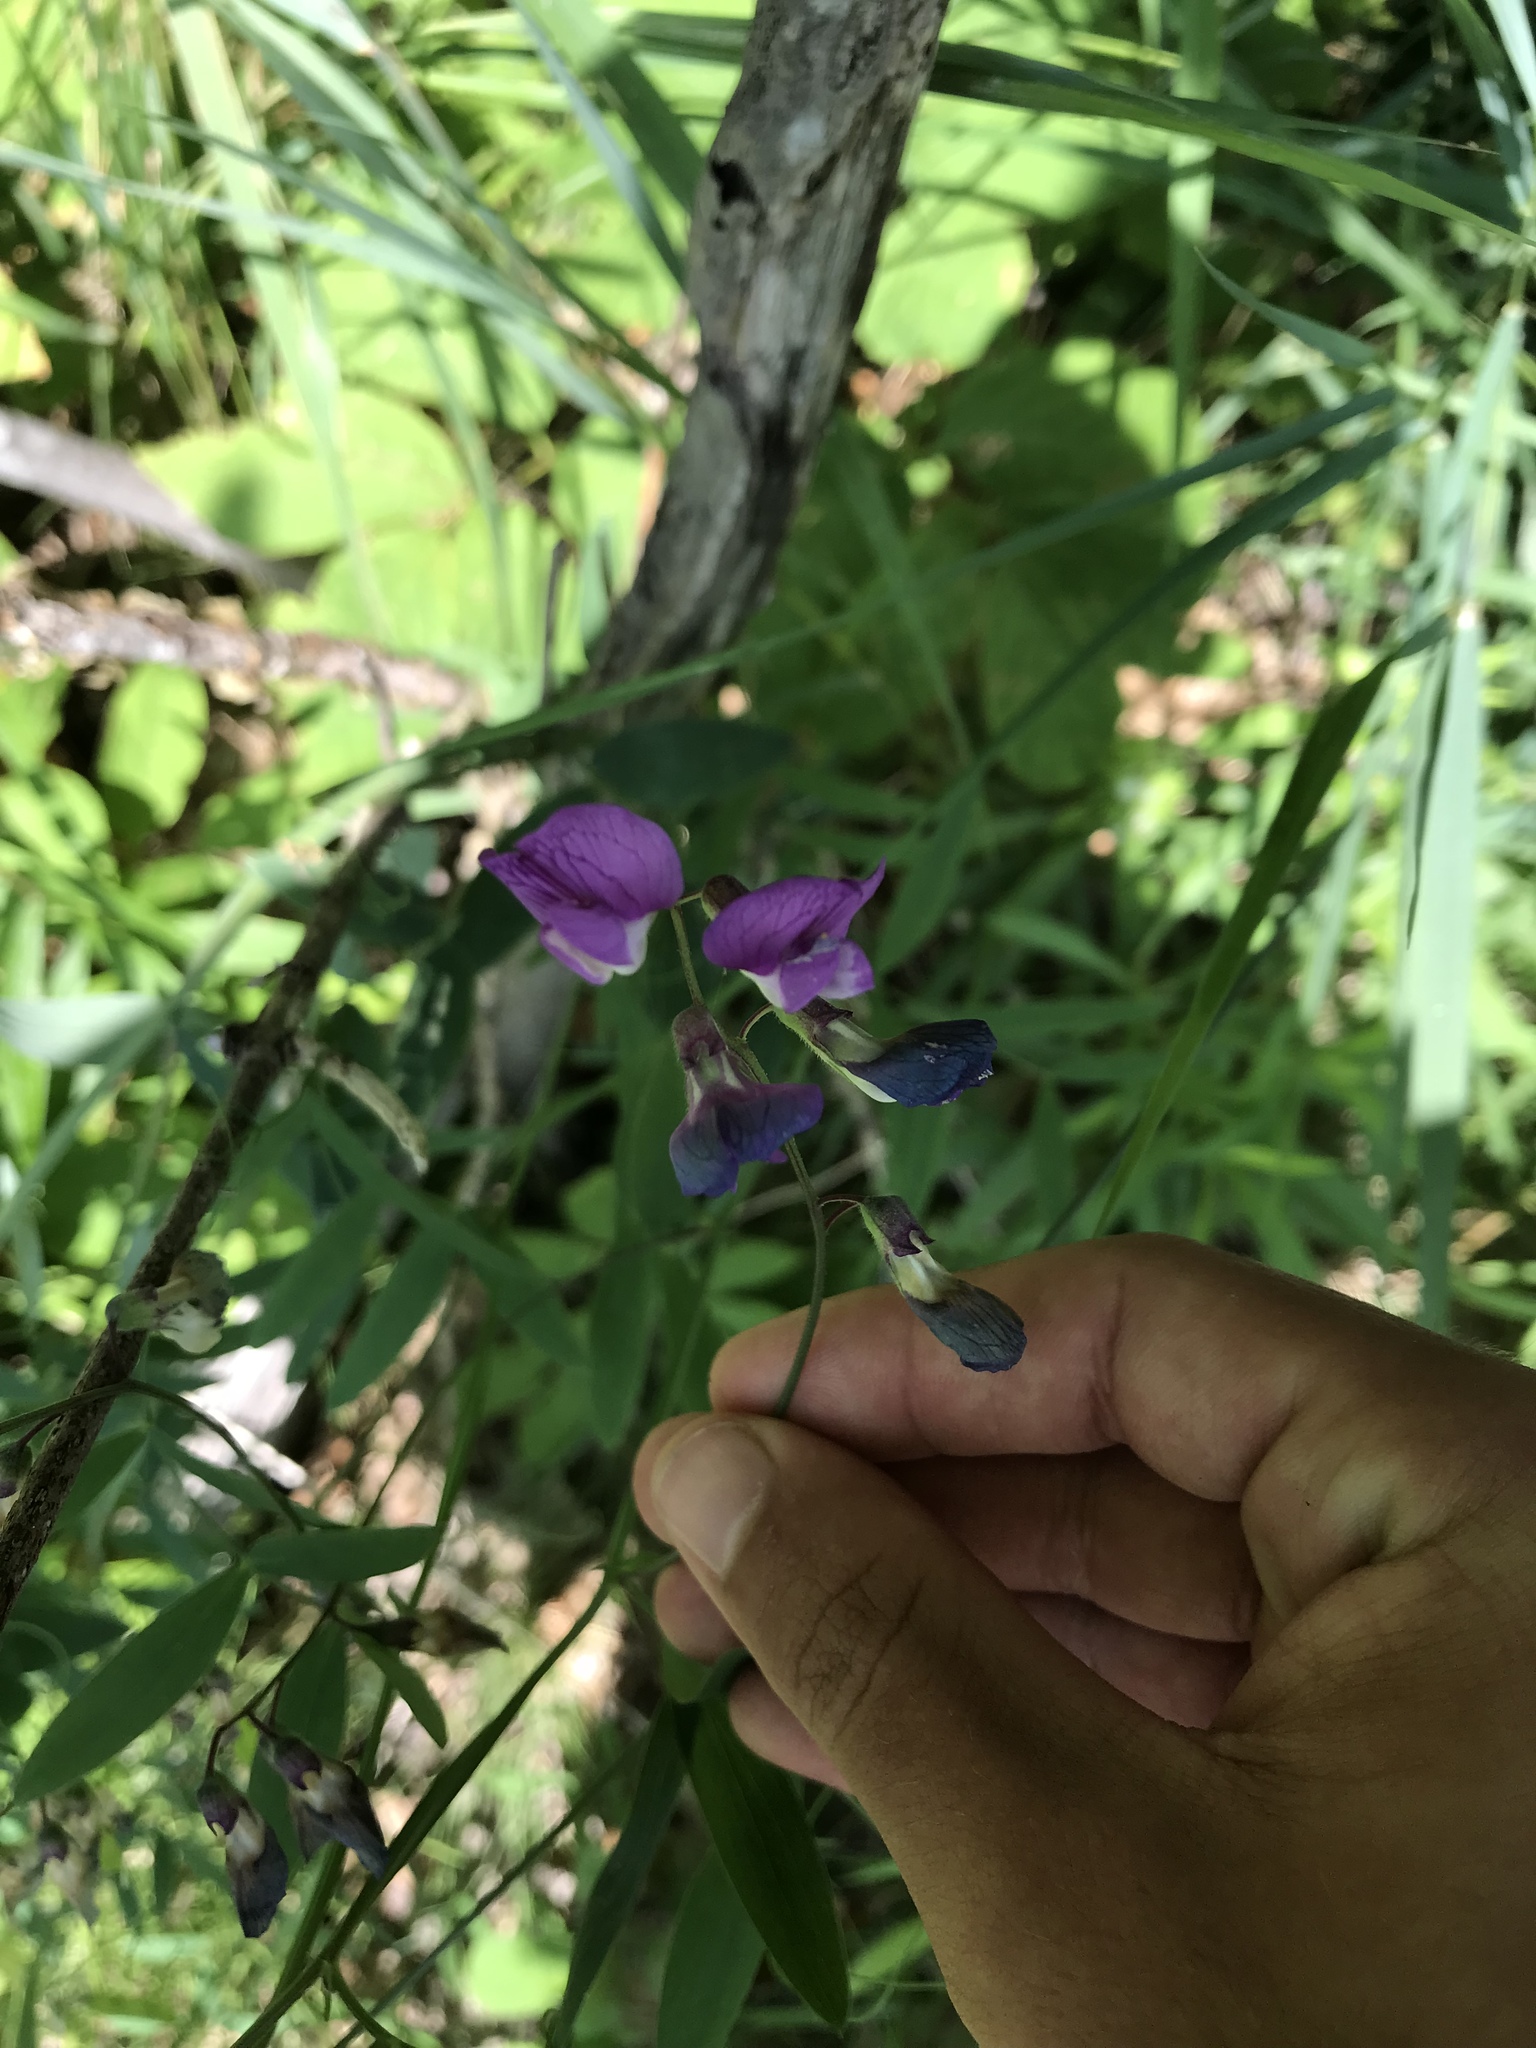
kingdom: Plantae
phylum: Tracheophyta
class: Magnoliopsida
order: Fabales
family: Fabaceae
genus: Lathyrus
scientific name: Lathyrus palustris
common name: Marsh pea
